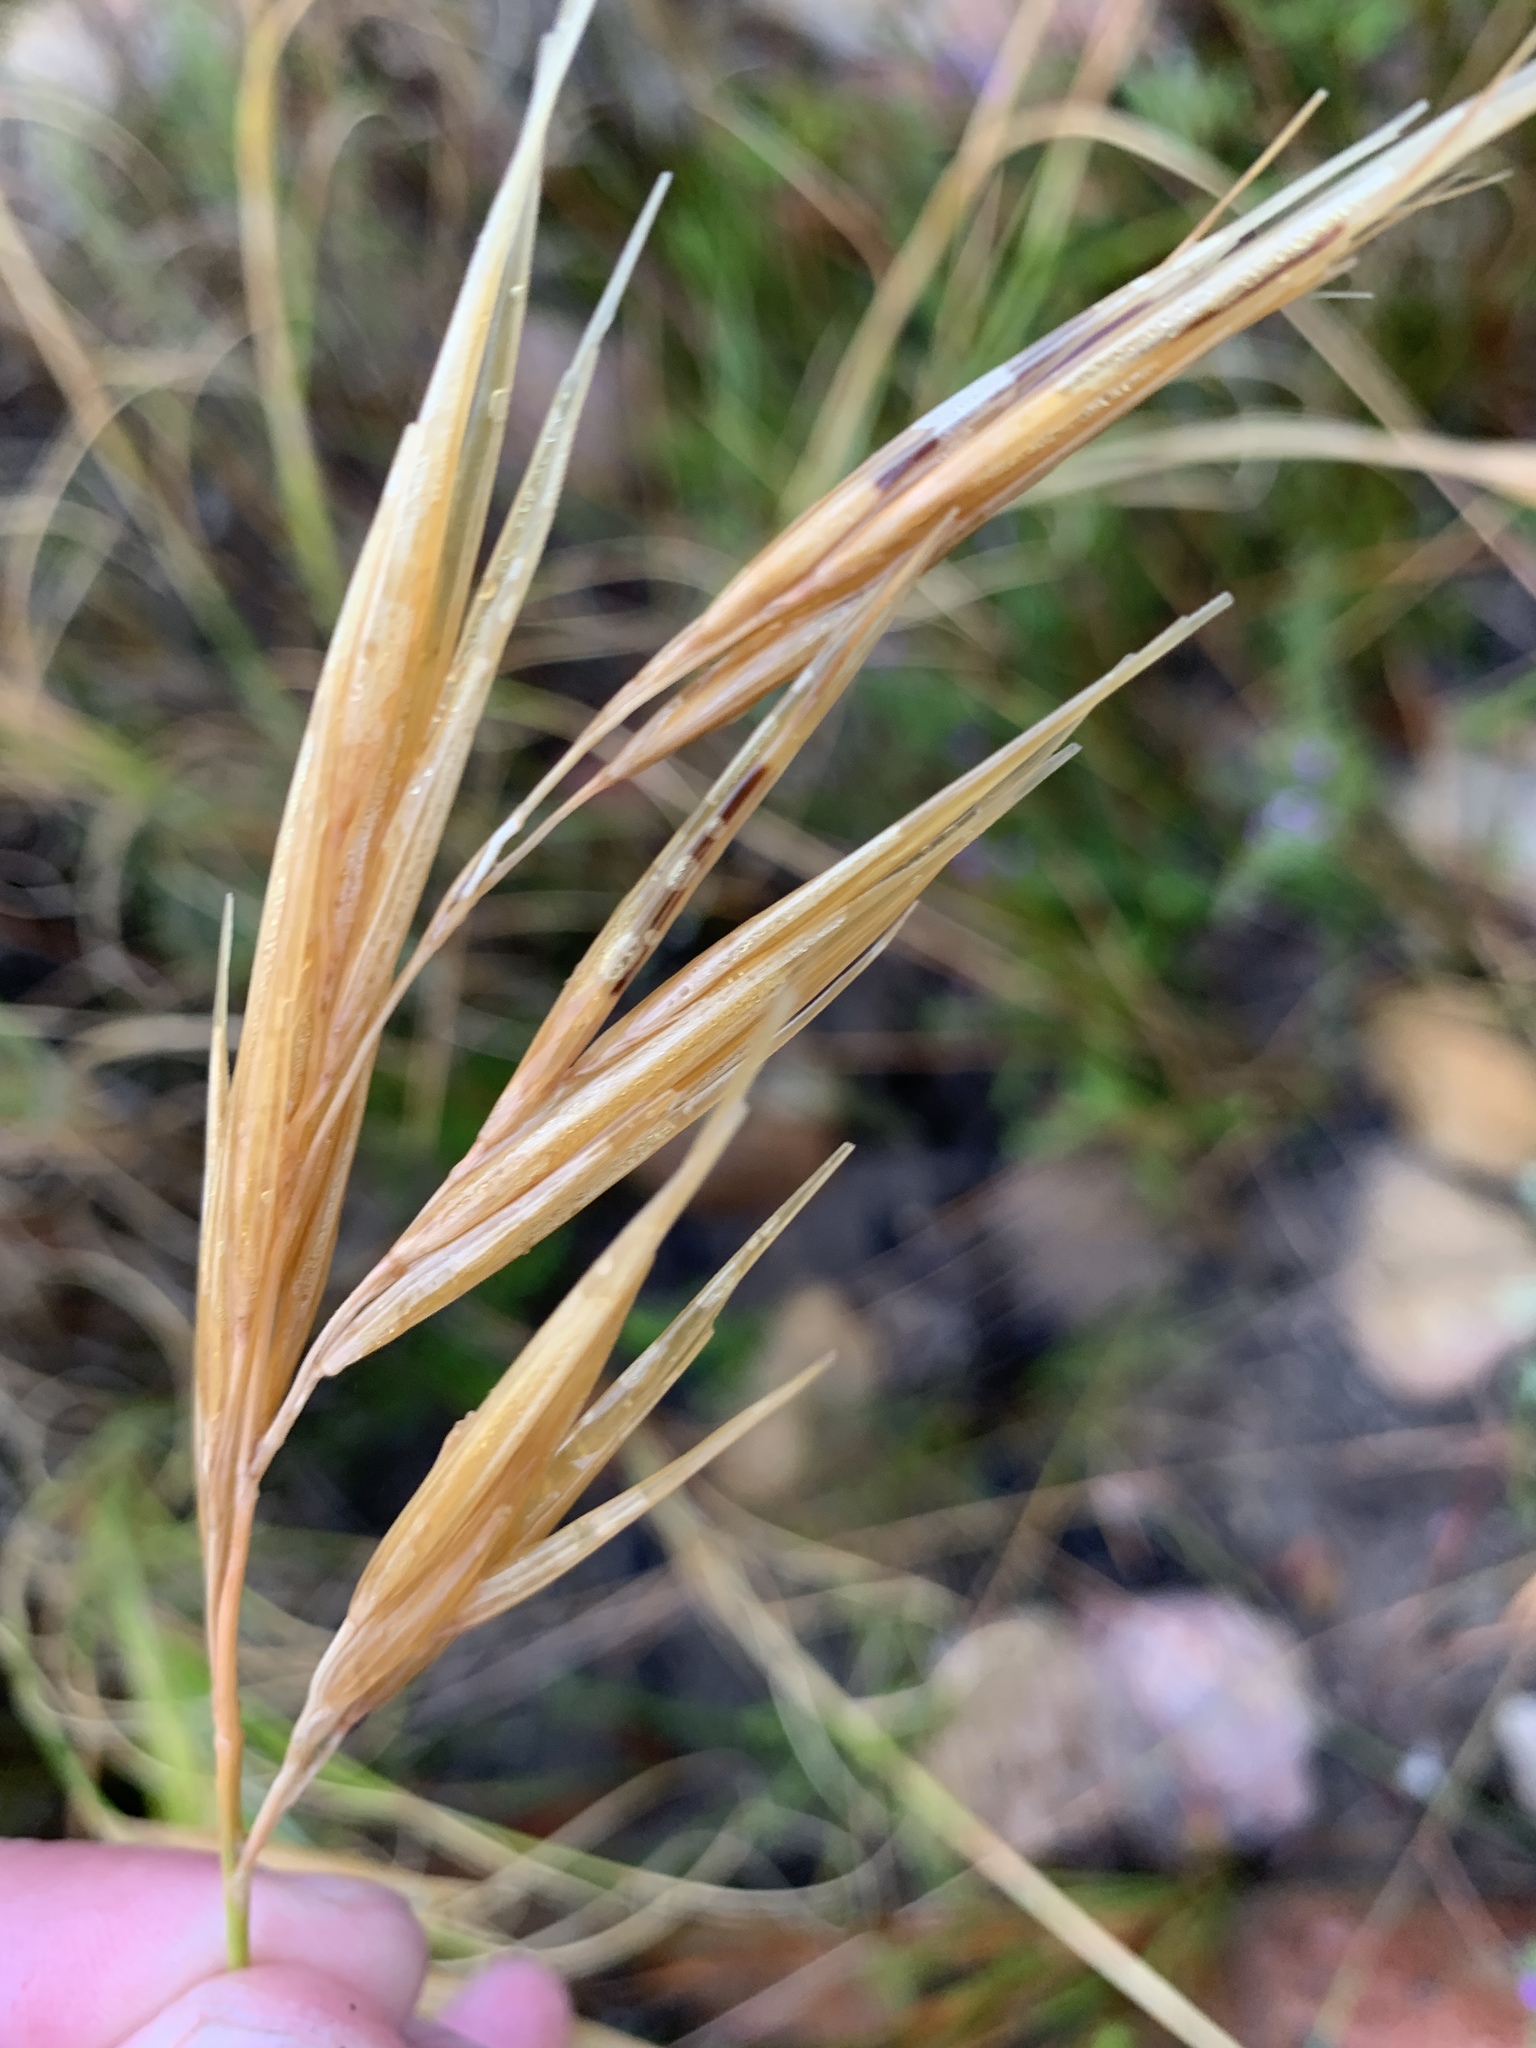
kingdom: Plantae
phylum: Tracheophyta
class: Liliopsida
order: Poales
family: Poaceae
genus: Pseudopentameris
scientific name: Pseudopentameris macrantha
